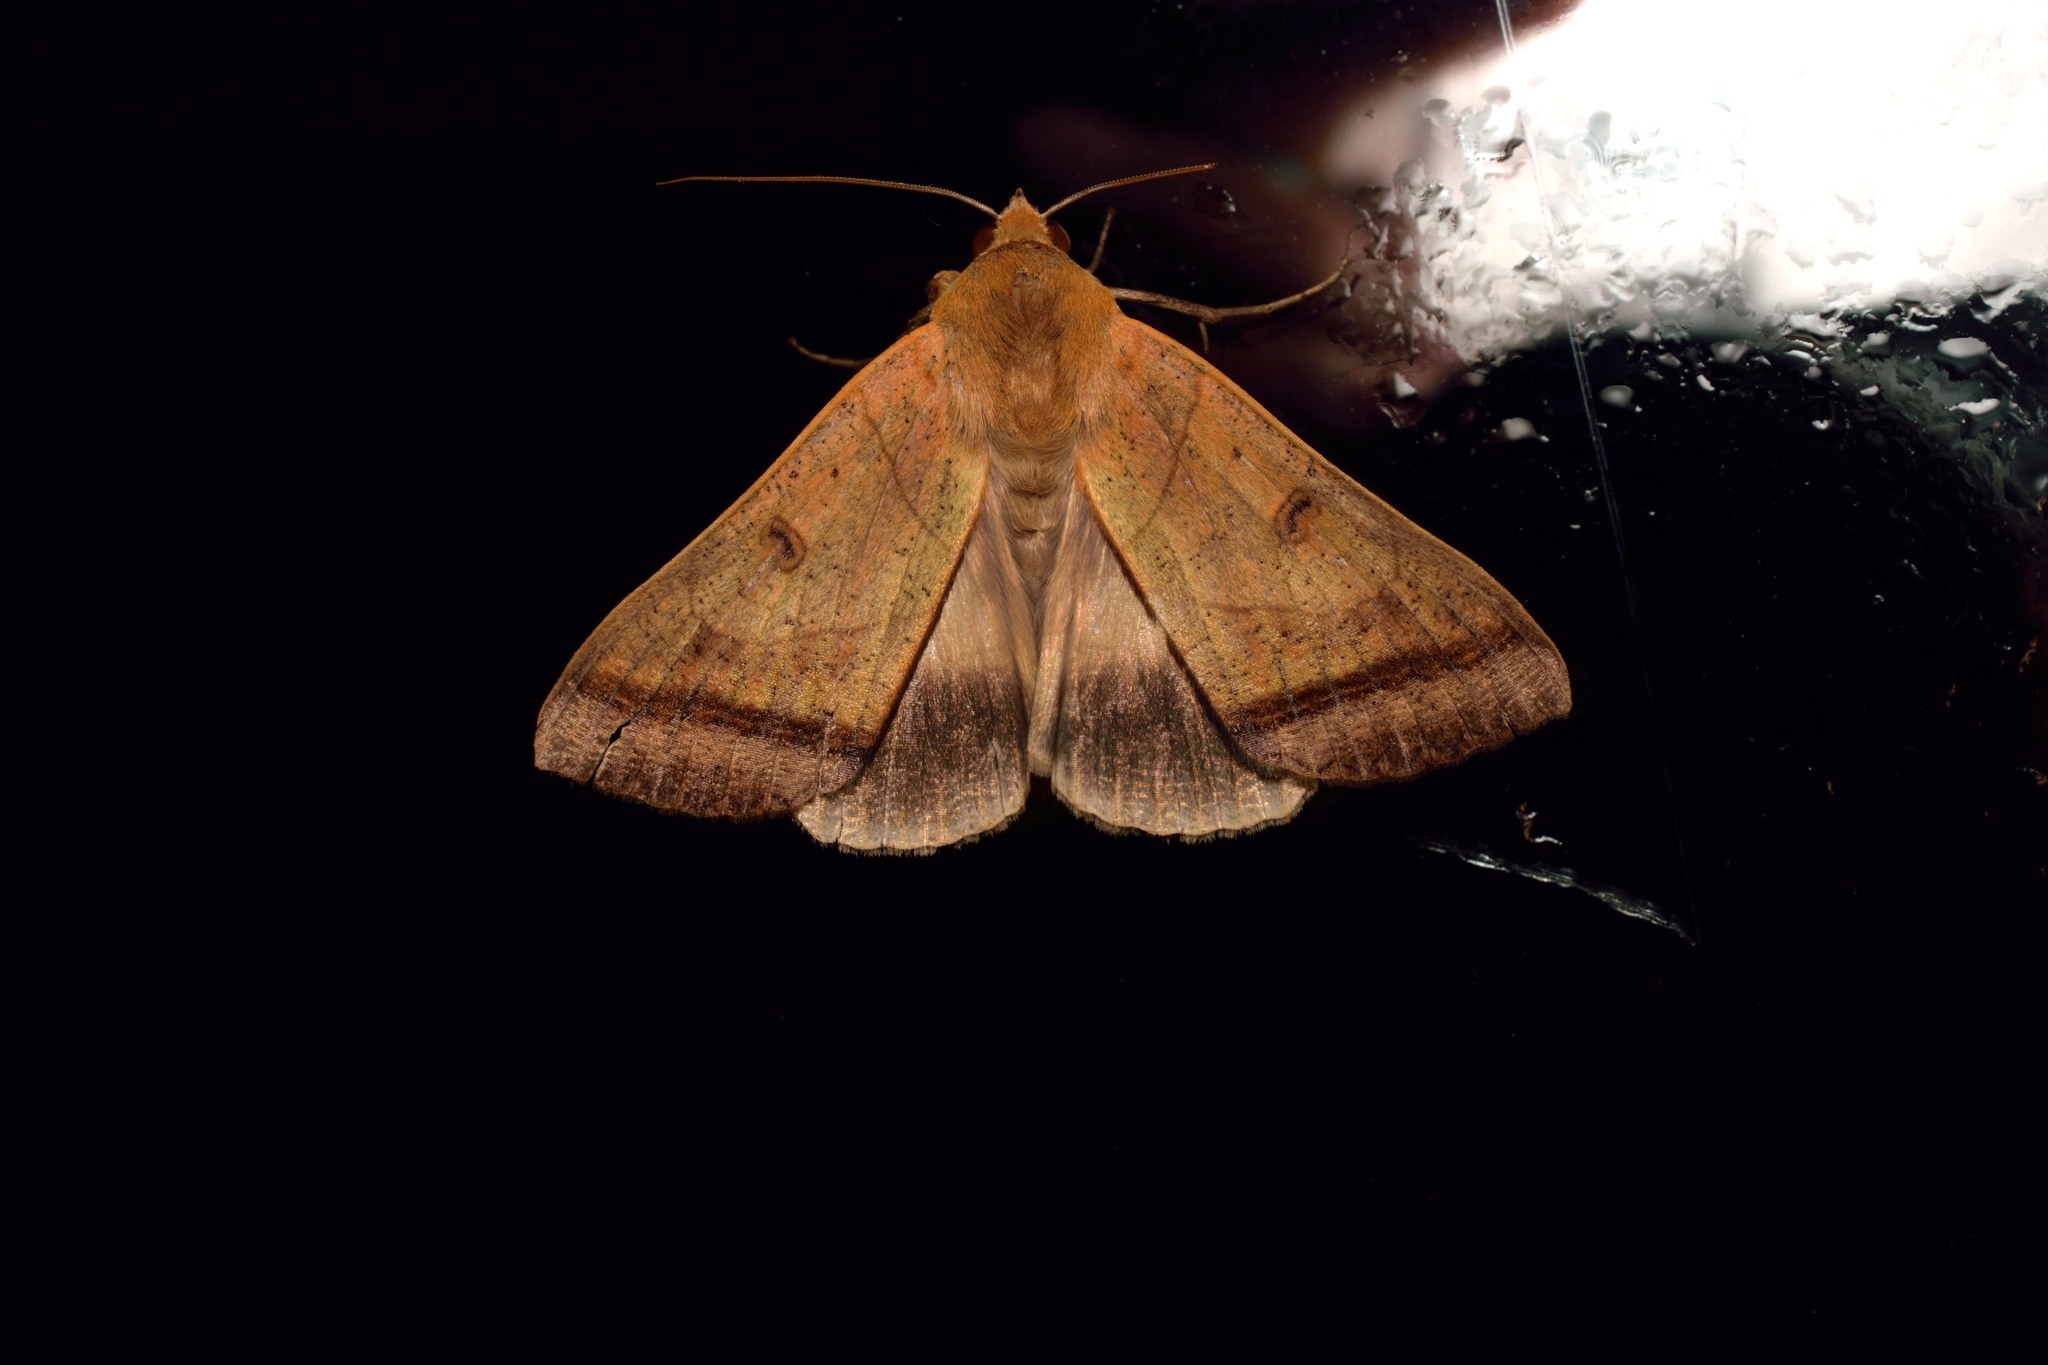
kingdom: Animalia
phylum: Arthropoda
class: Insecta
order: Lepidoptera
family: Erebidae
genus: Ophiusa
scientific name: Ophiusa trapezium
